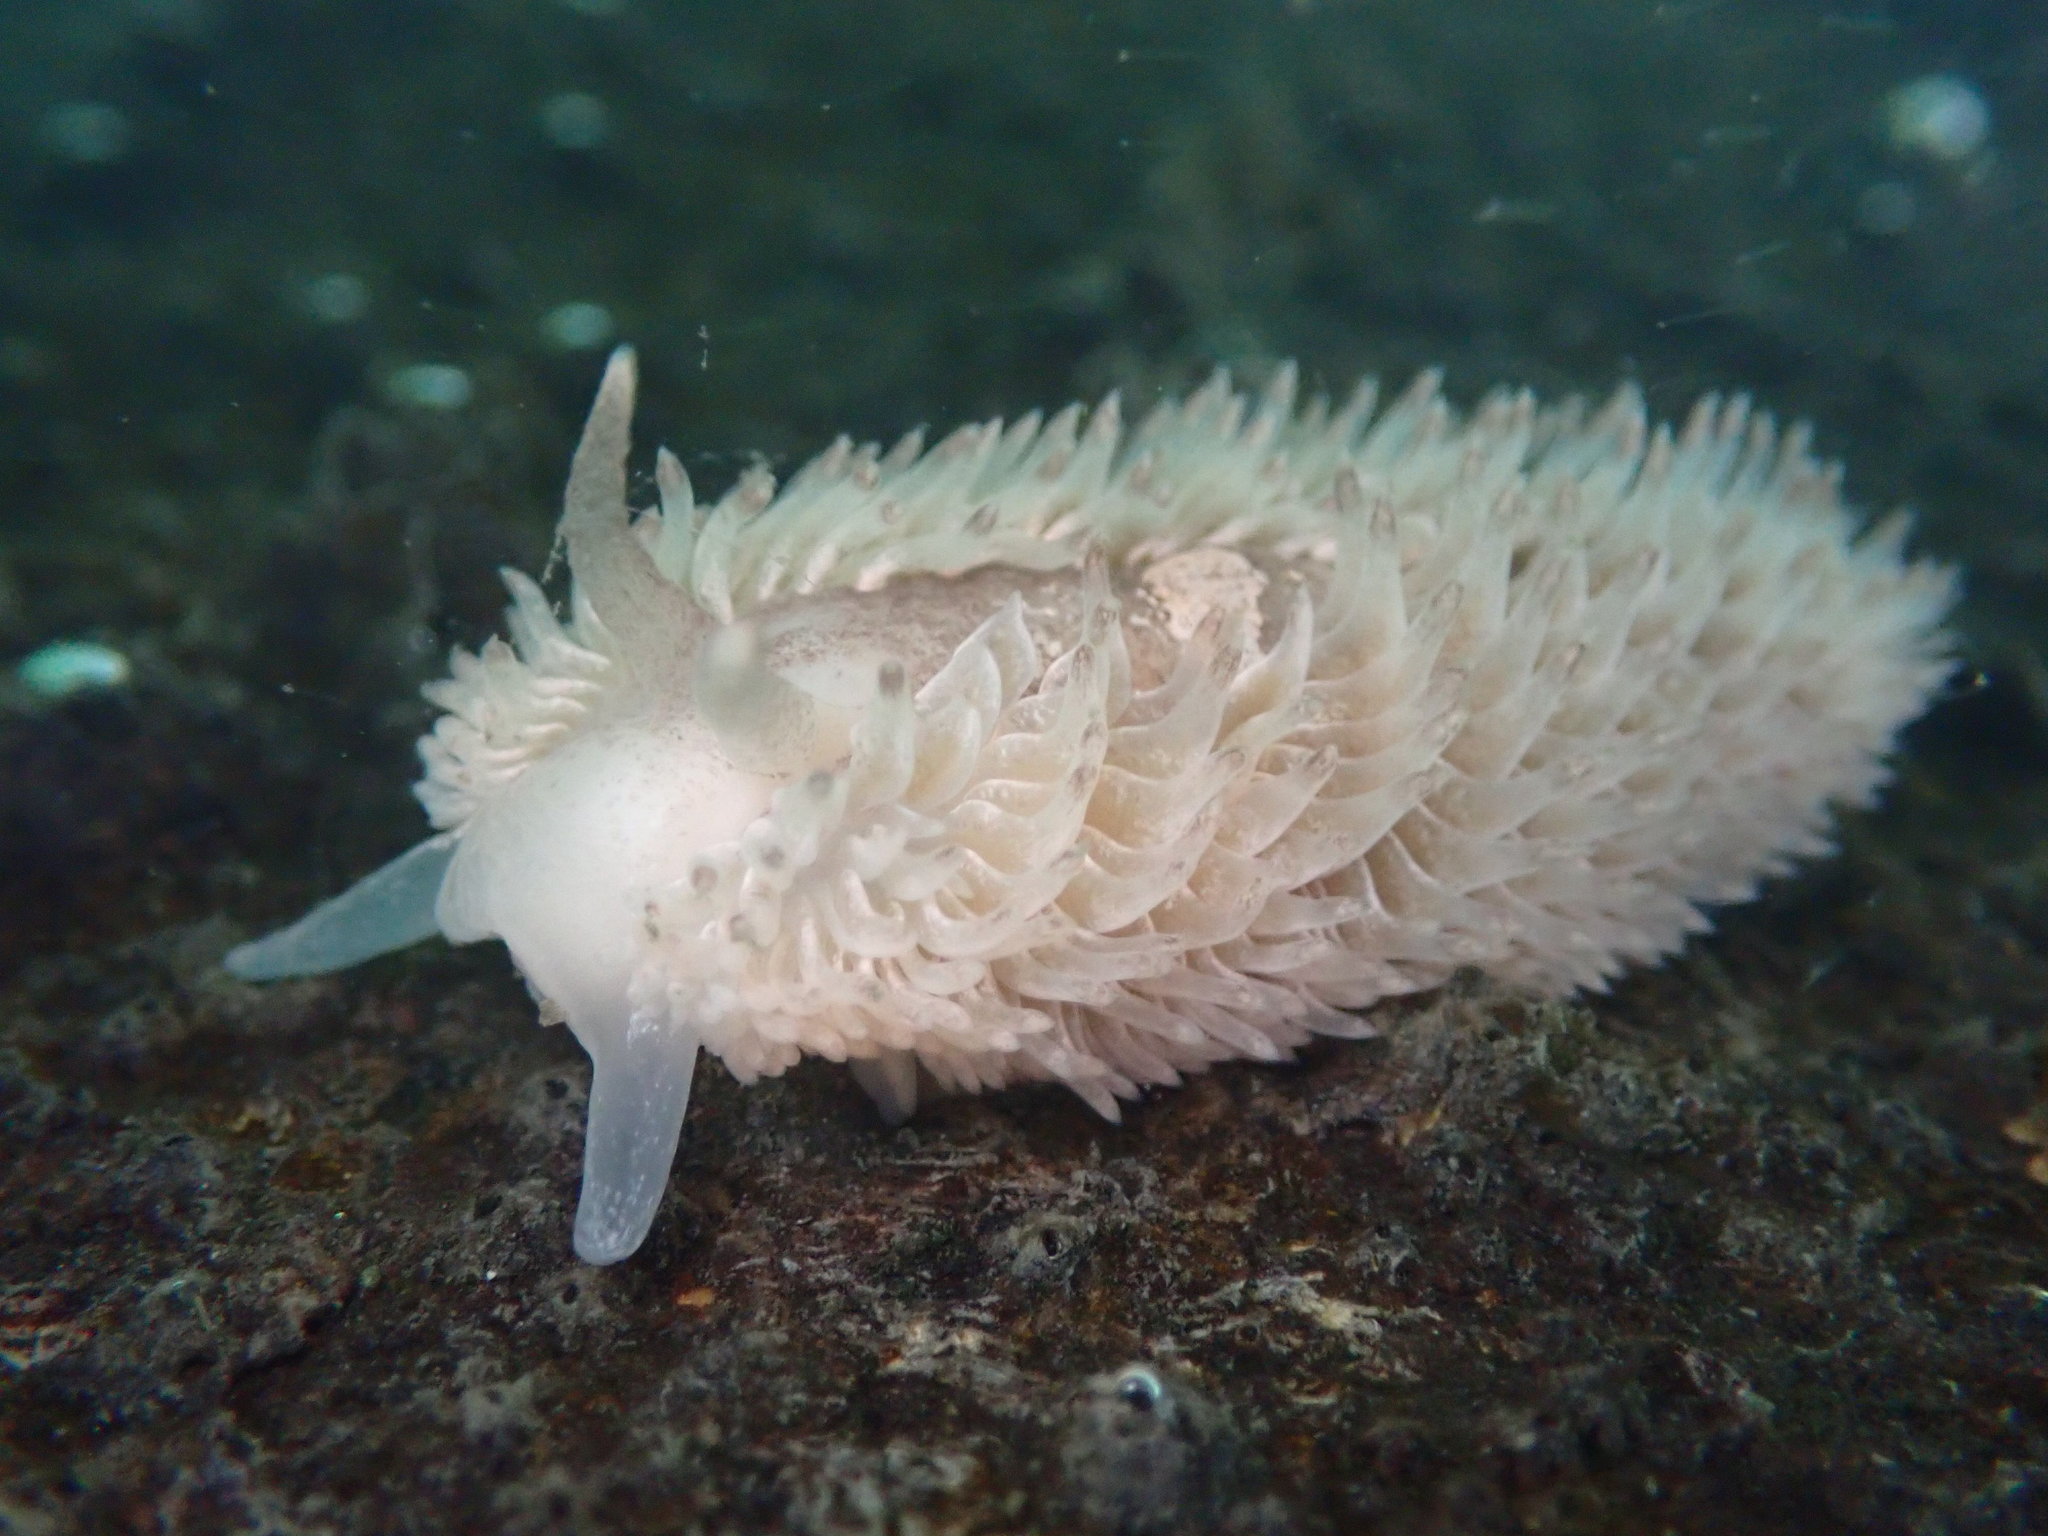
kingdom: Animalia
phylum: Mollusca
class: Gastropoda
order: Nudibranchia
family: Aeolidiidae
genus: Aeolidia
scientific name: Aeolidia loui
